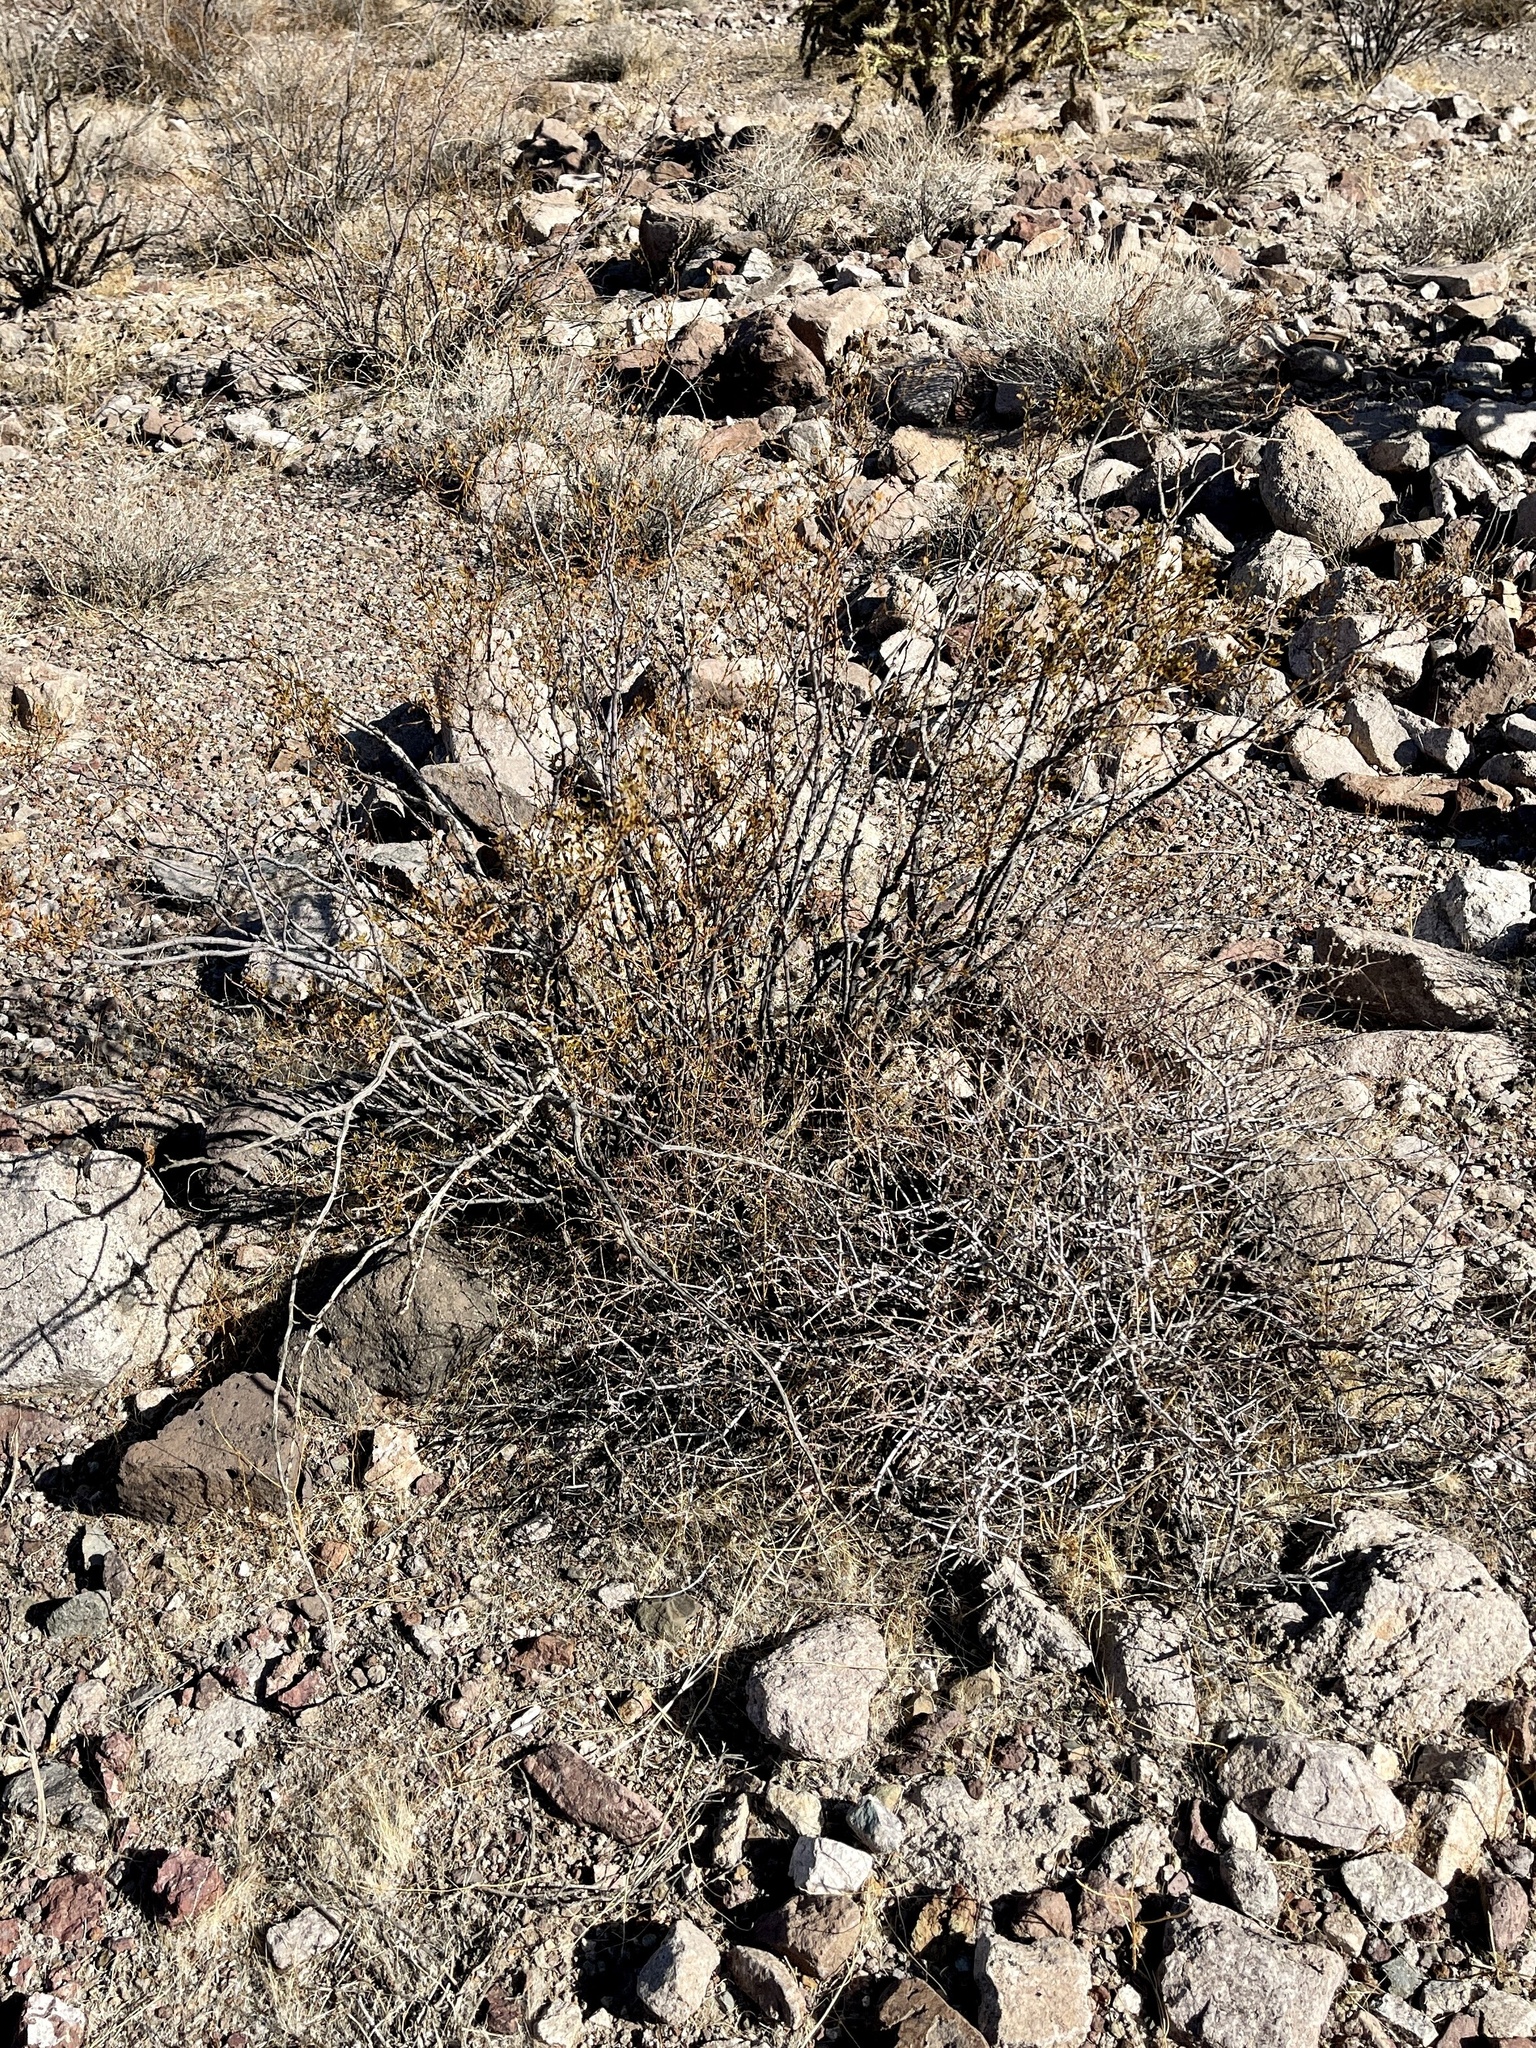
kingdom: Plantae
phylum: Tracheophyta
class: Magnoliopsida
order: Zygophyllales
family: Zygophyllaceae
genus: Larrea
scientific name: Larrea tridentata
